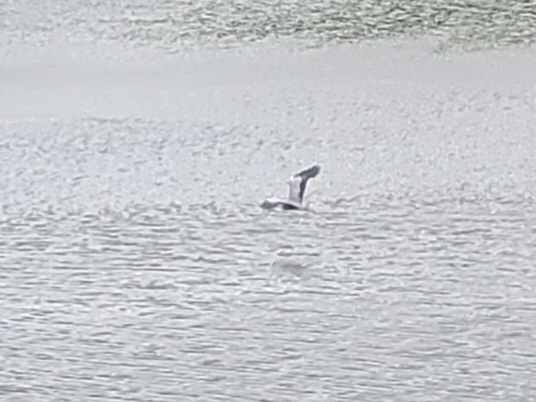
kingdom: Animalia
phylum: Chordata
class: Aves
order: Pelecaniformes
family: Ardeidae
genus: Ardea
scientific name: Ardea cinerea
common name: Grey heron
